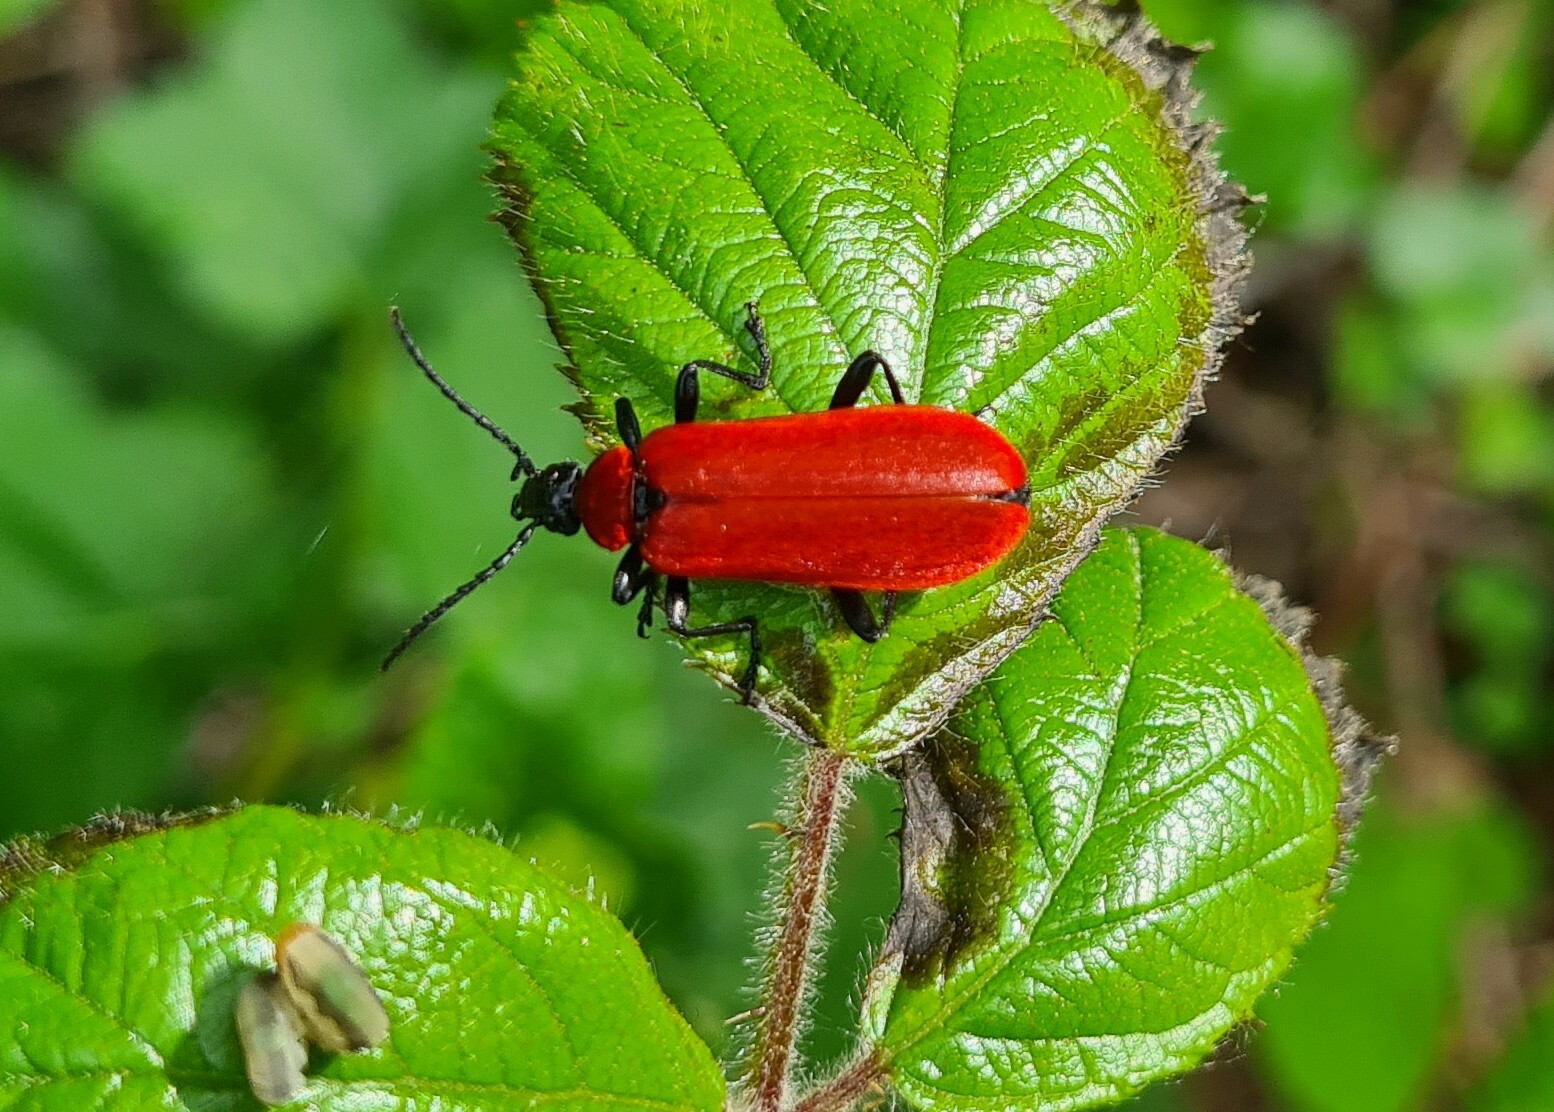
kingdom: Animalia
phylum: Arthropoda
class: Insecta
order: Coleoptera
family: Pyrochroidae
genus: Pyrochroa
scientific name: Pyrochroa coccinea
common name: Black-headed cardinal beetle
